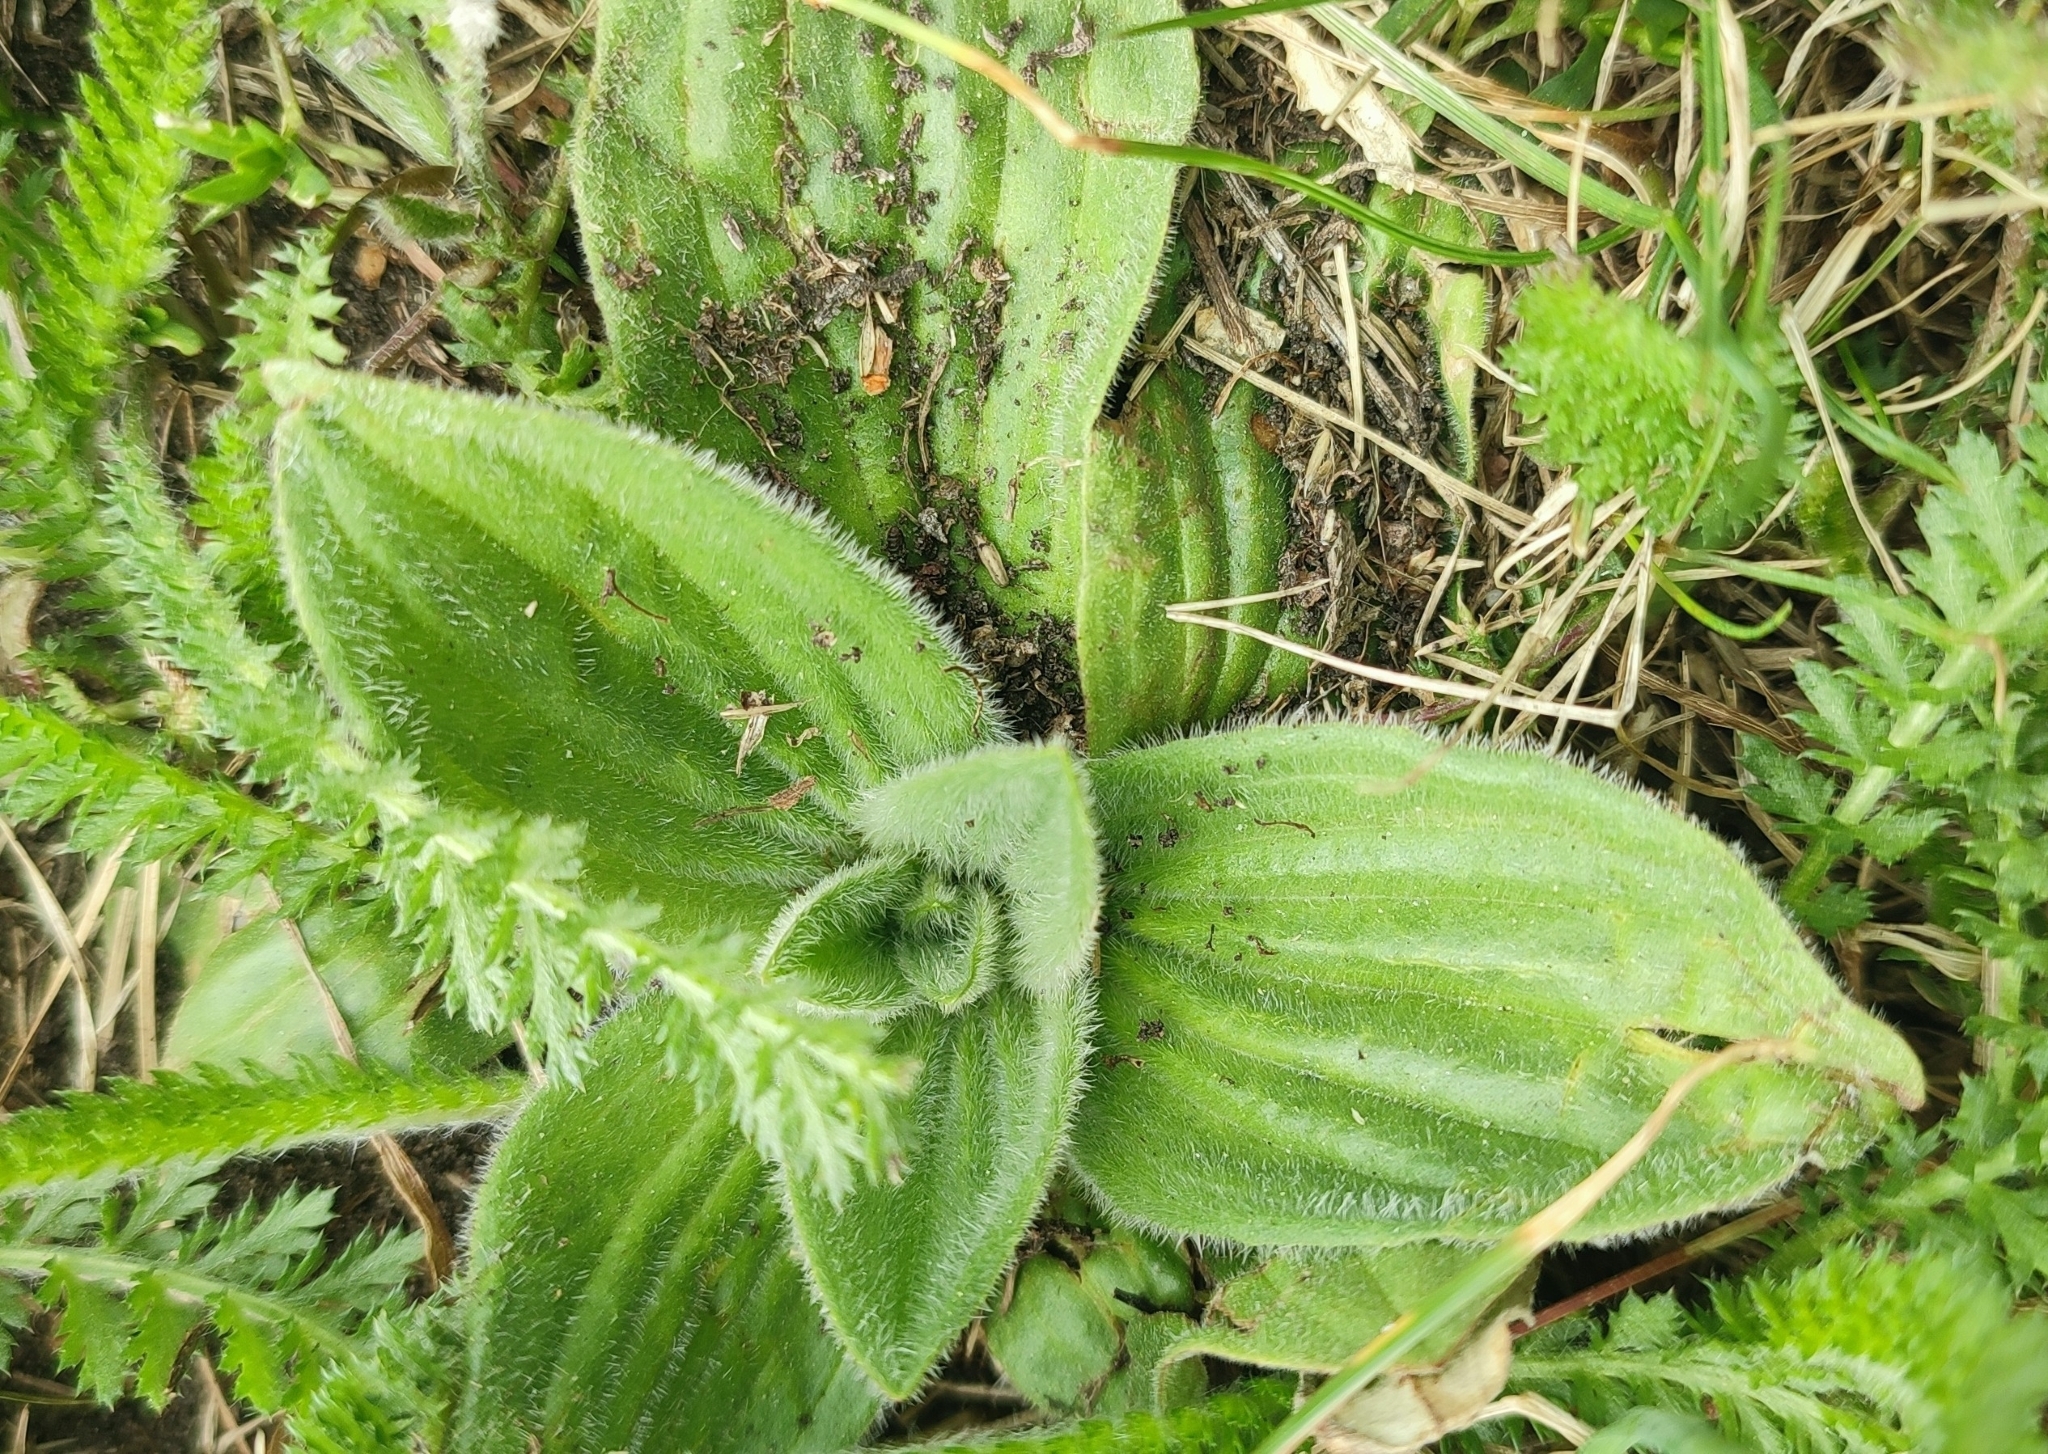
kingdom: Plantae
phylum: Tracheophyta
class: Magnoliopsida
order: Lamiales
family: Plantaginaceae
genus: Plantago
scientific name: Plantago media
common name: Hoary plantain
